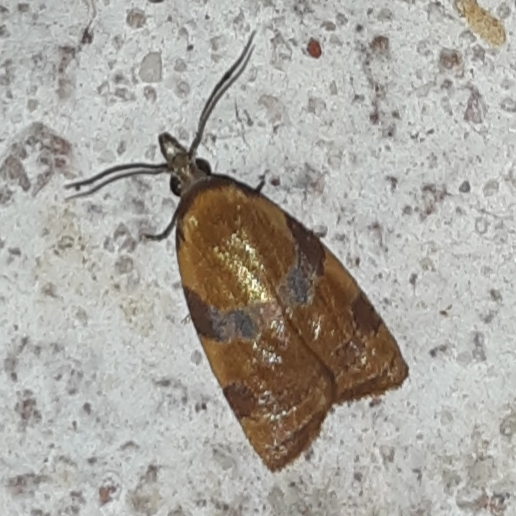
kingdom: Animalia
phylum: Arthropoda
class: Insecta
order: Lepidoptera
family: Tortricidae
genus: Cenopis
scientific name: Cenopis diluticostana
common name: Spring dead-leaf roller moth
